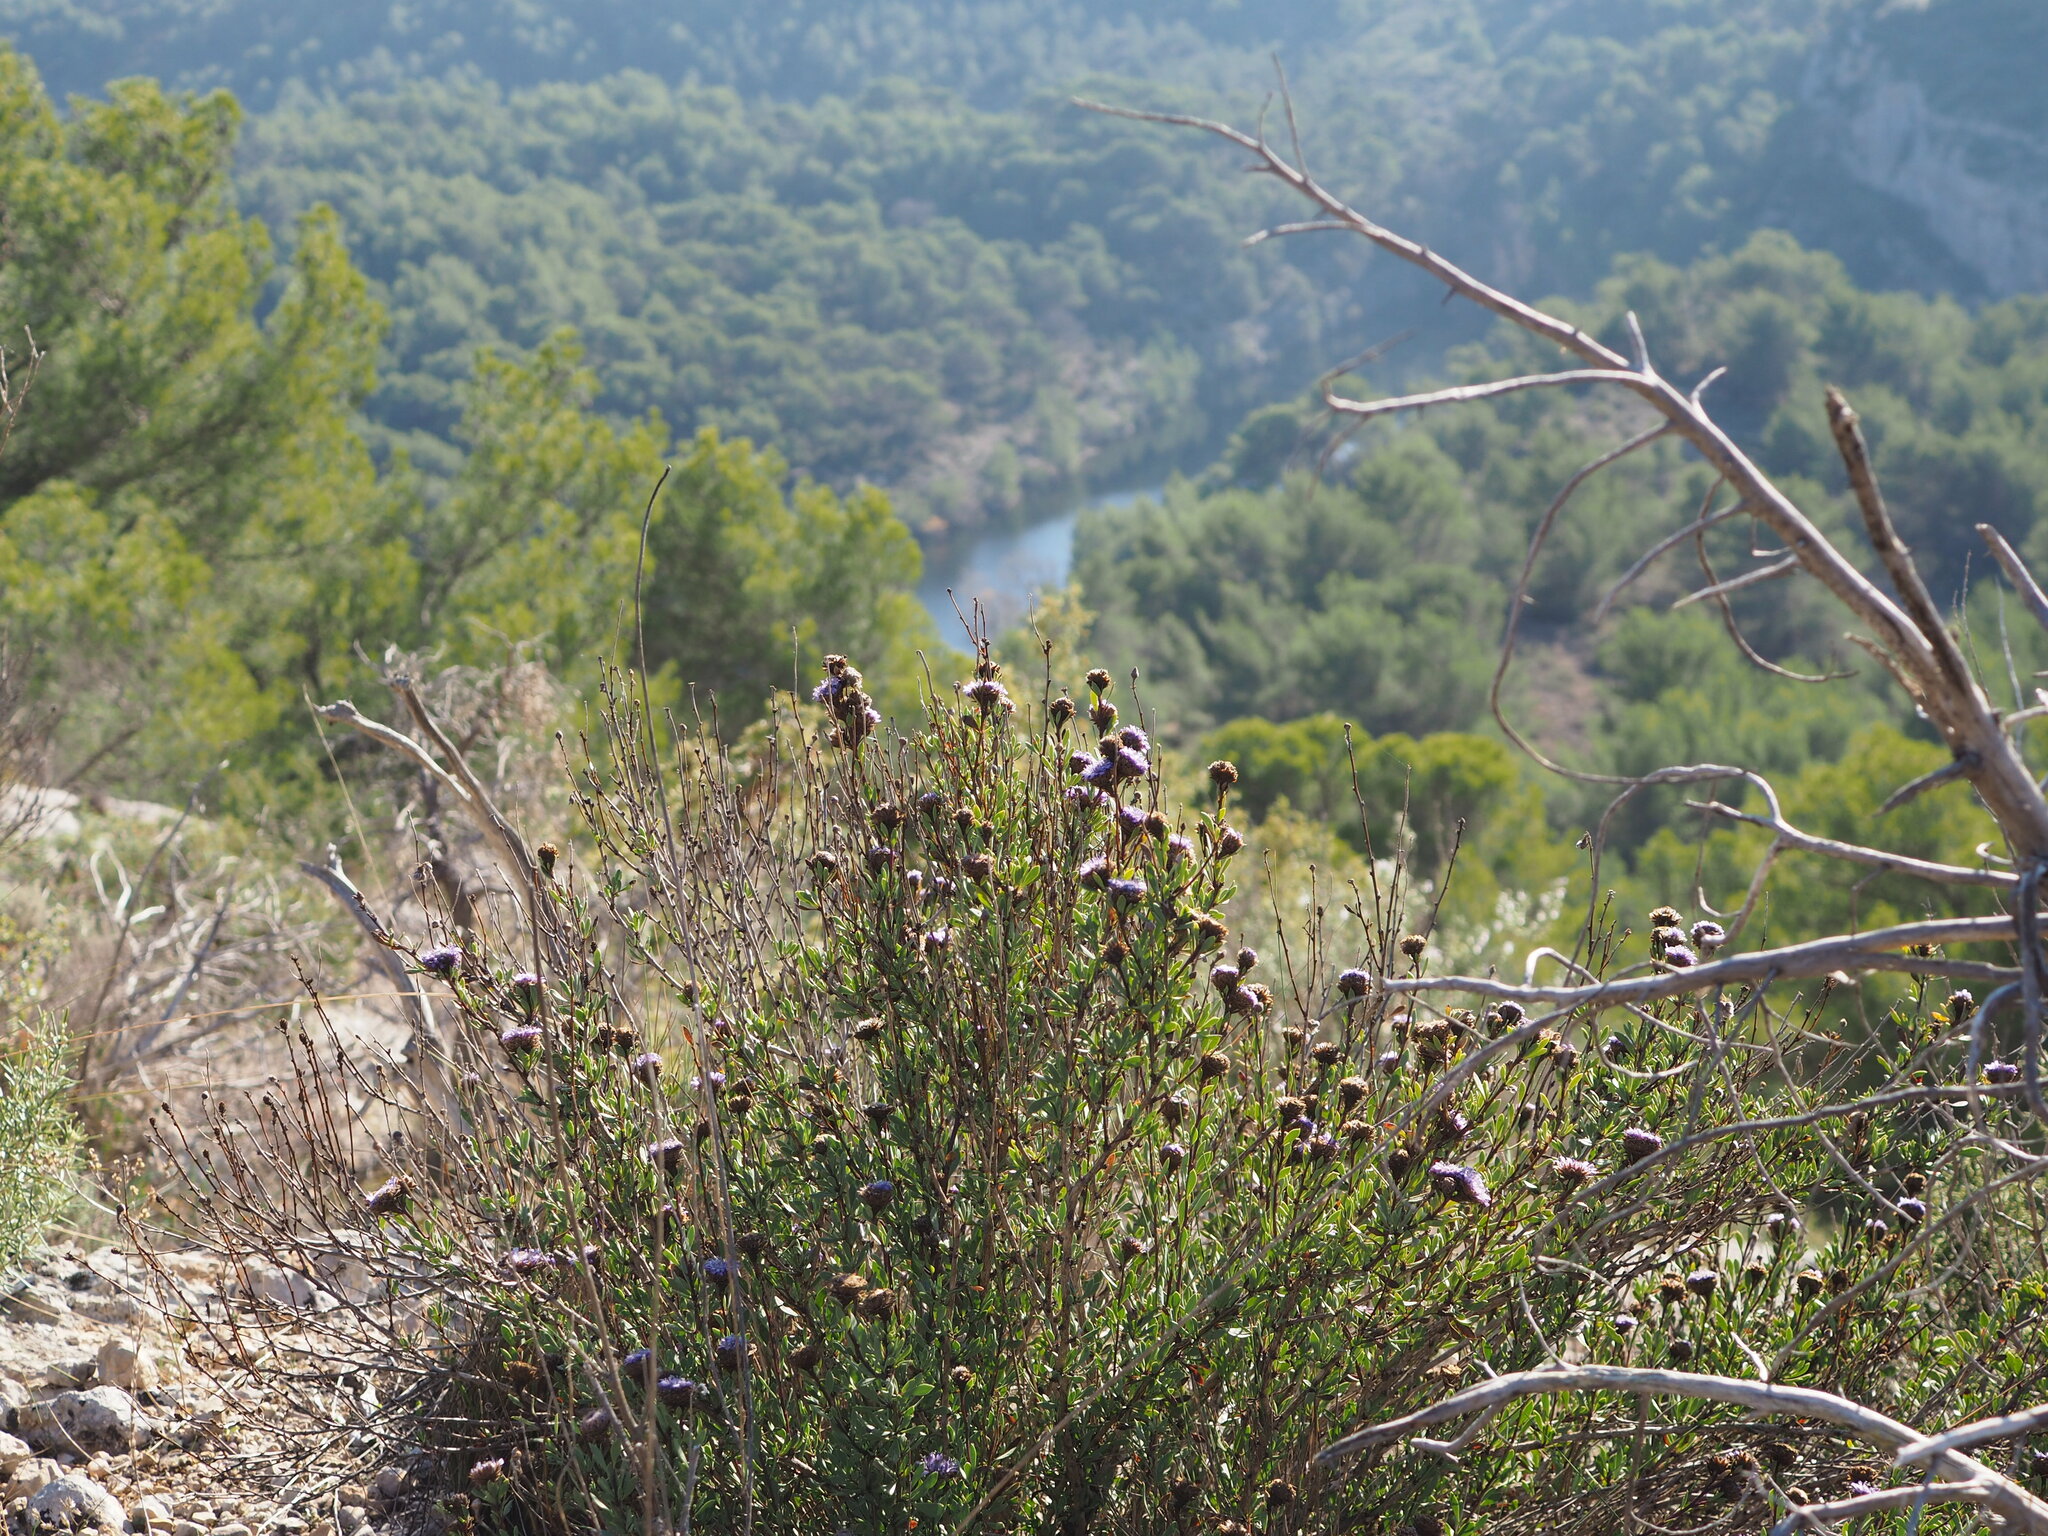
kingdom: Plantae
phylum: Tracheophyta
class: Magnoliopsida
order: Lamiales
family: Plantaginaceae
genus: Globularia
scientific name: Globularia alypum
